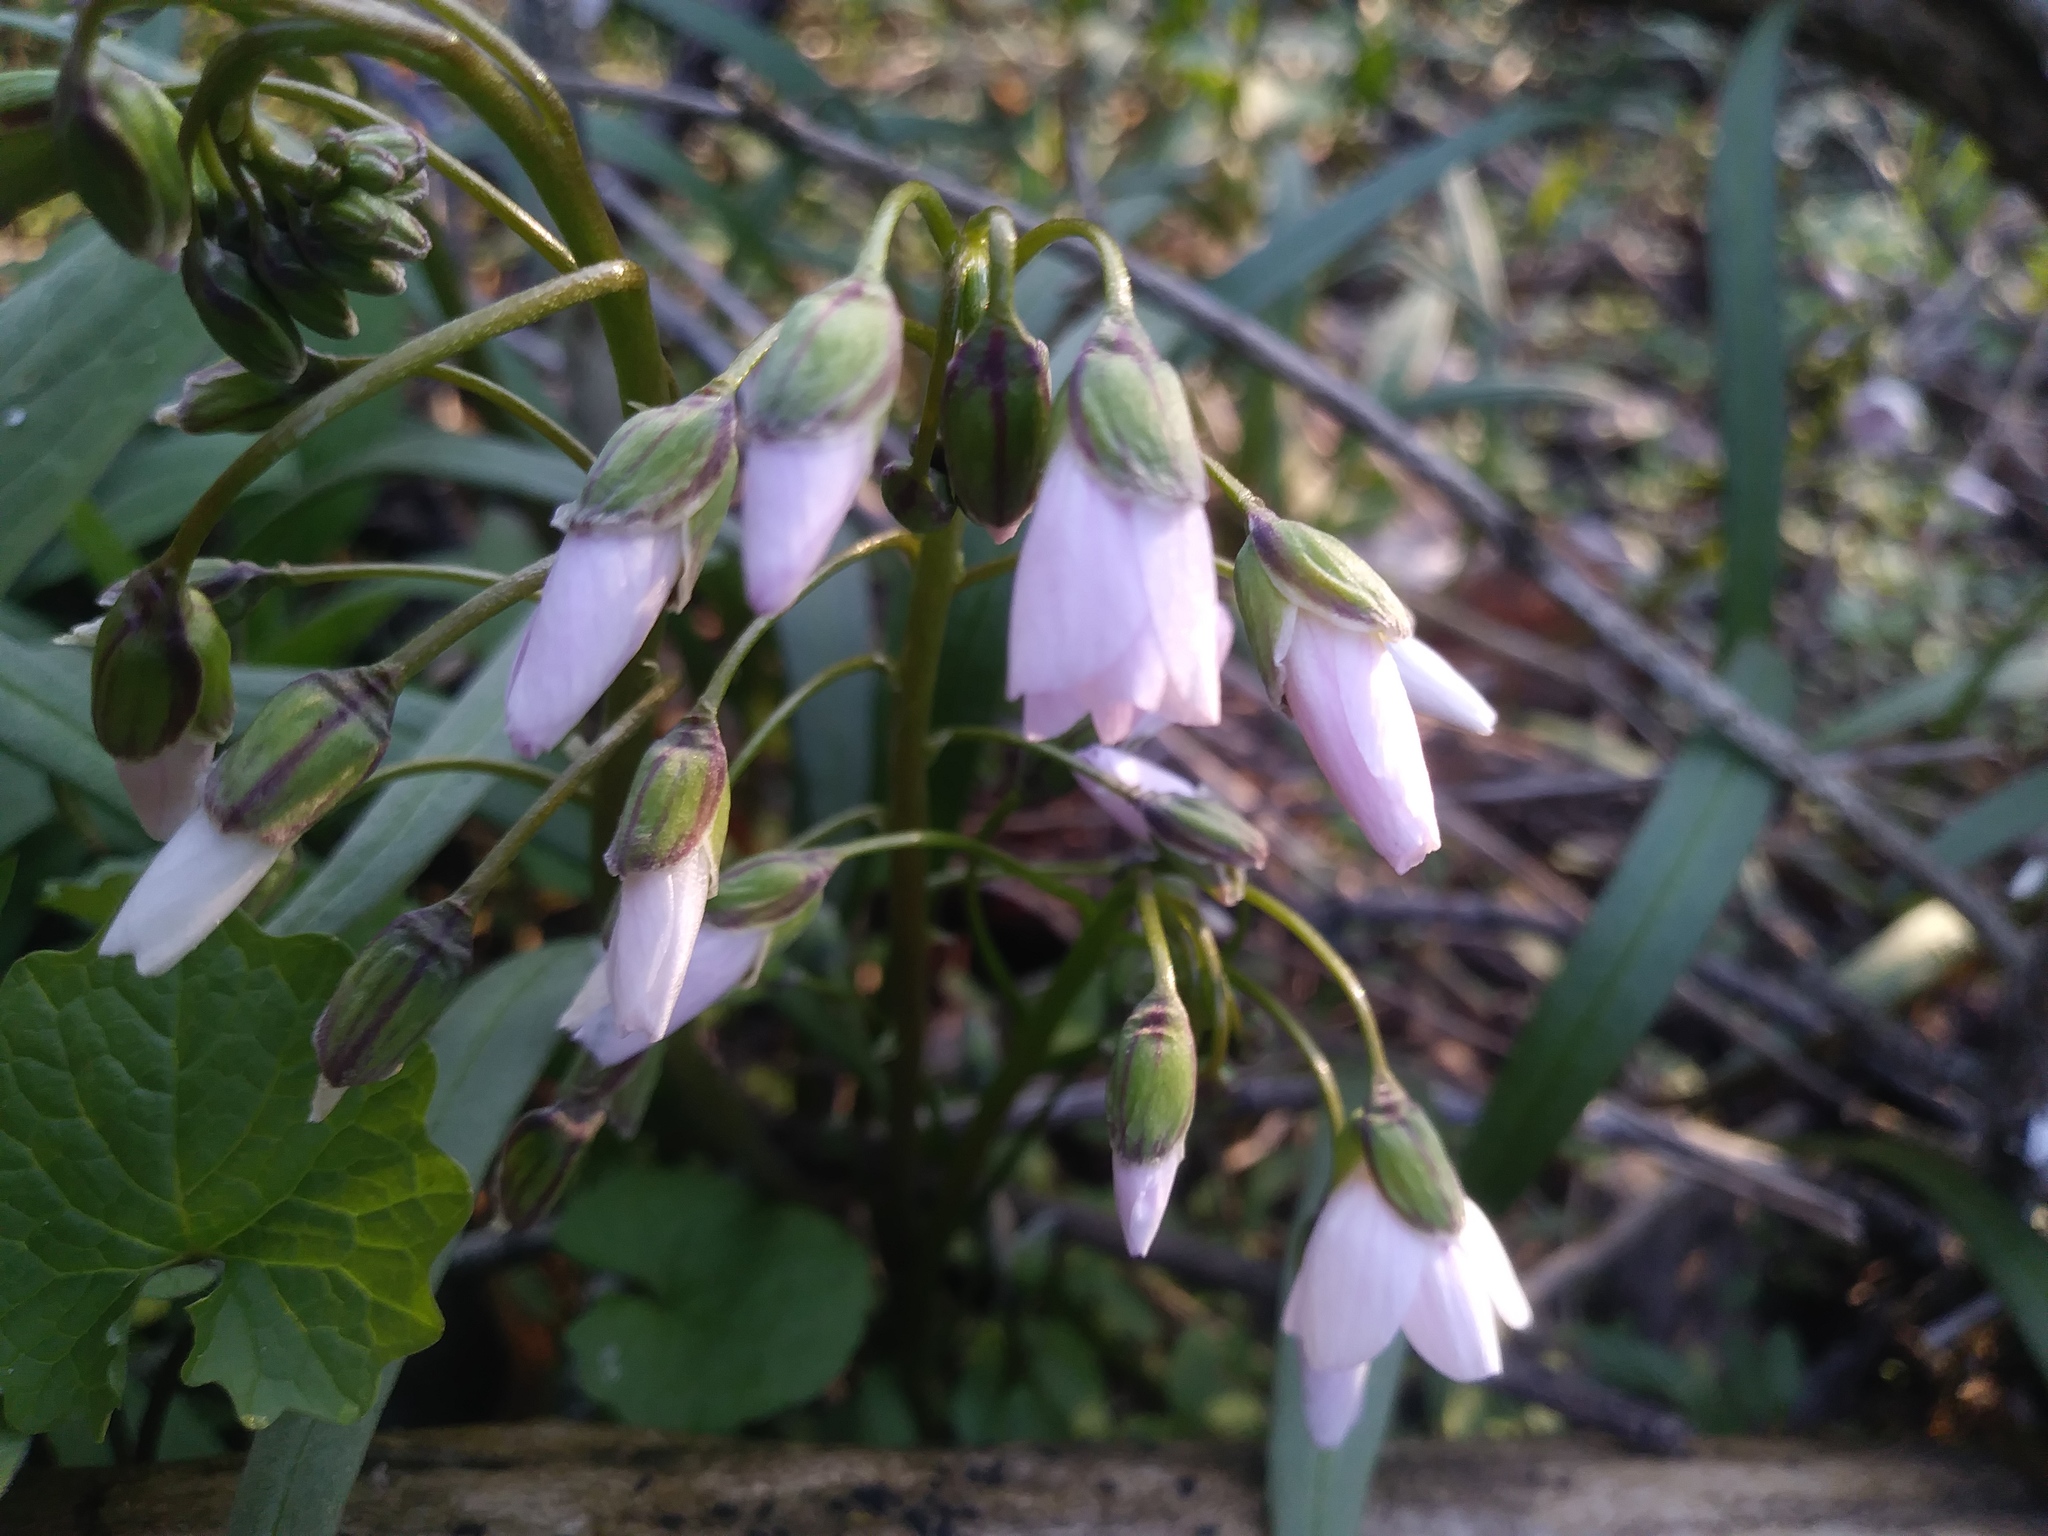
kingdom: Plantae
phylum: Tracheophyta
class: Magnoliopsida
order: Caryophyllales
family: Montiaceae
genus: Claytonia
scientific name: Claytonia virginica
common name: Virginia springbeauty
